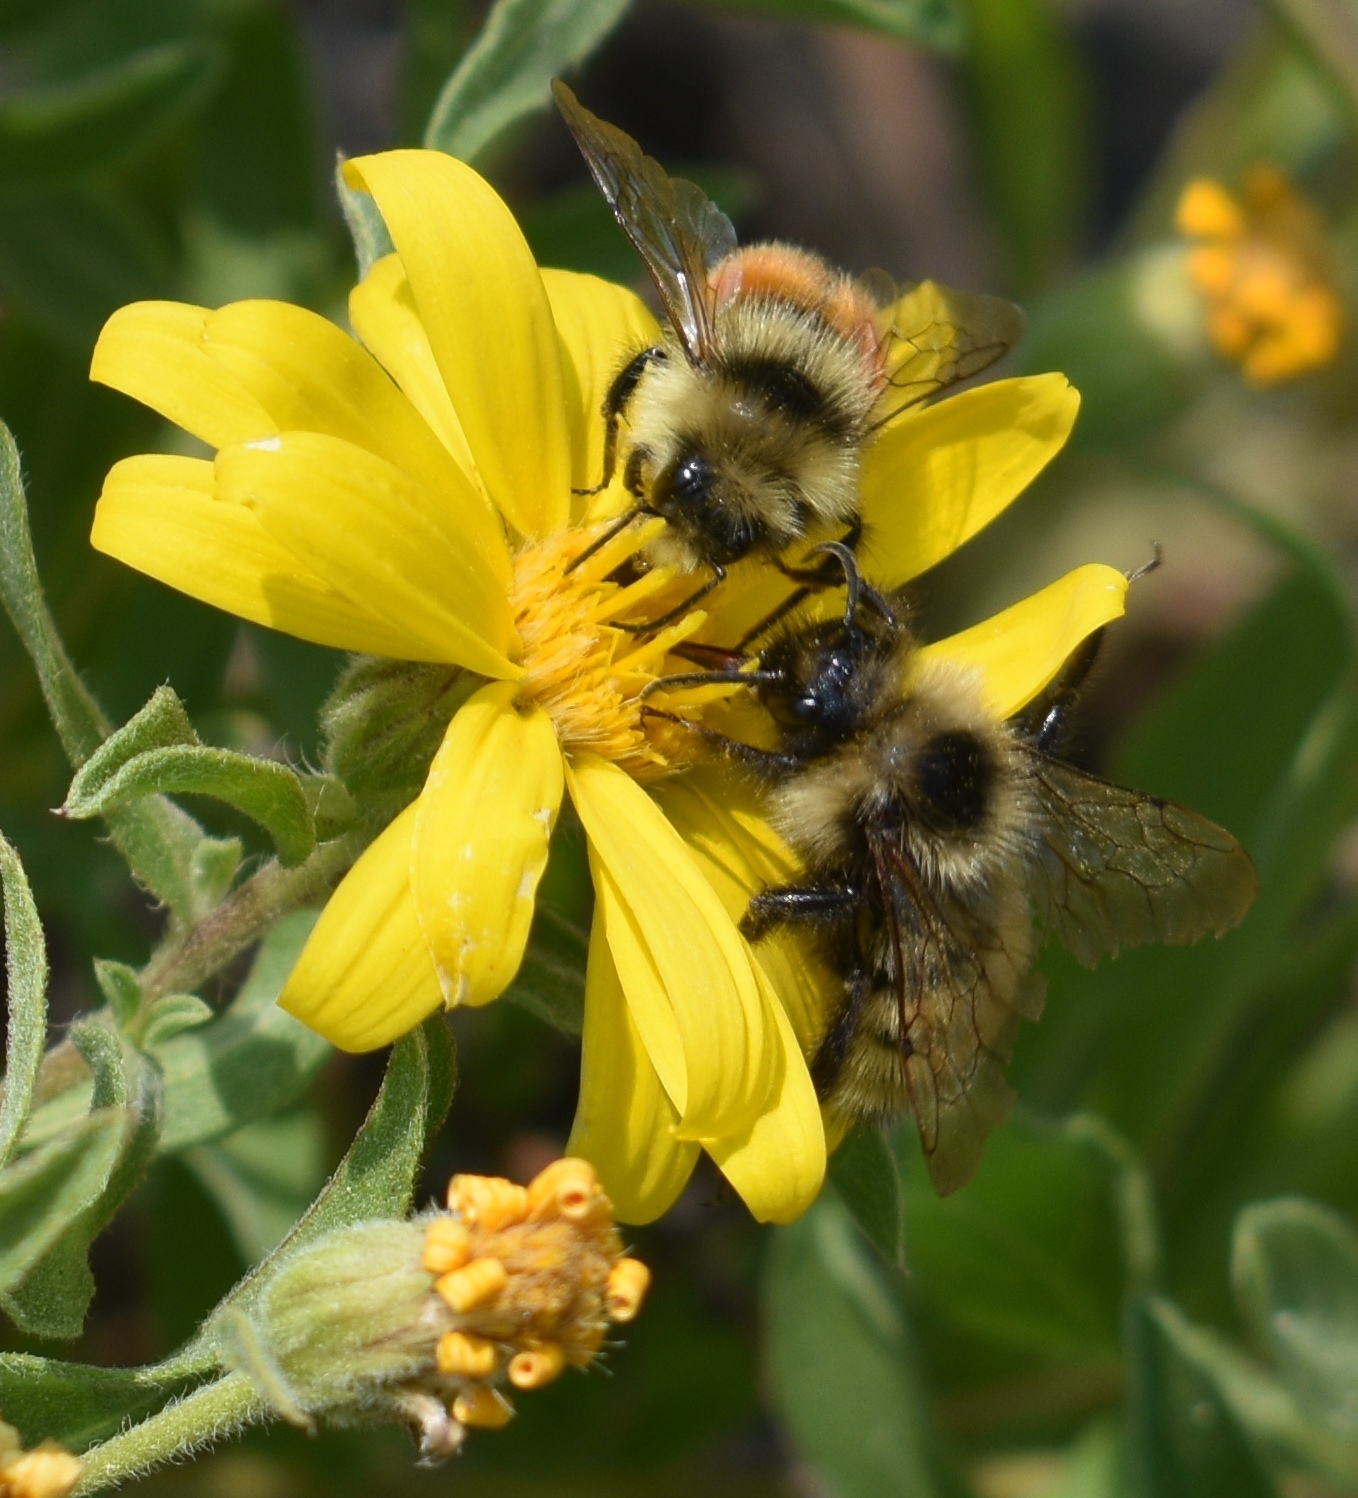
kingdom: Animalia
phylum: Arthropoda
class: Insecta
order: Hymenoptera
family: Apidae
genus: Bombus
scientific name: Bombus sylvicola
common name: Forest bumble bee
